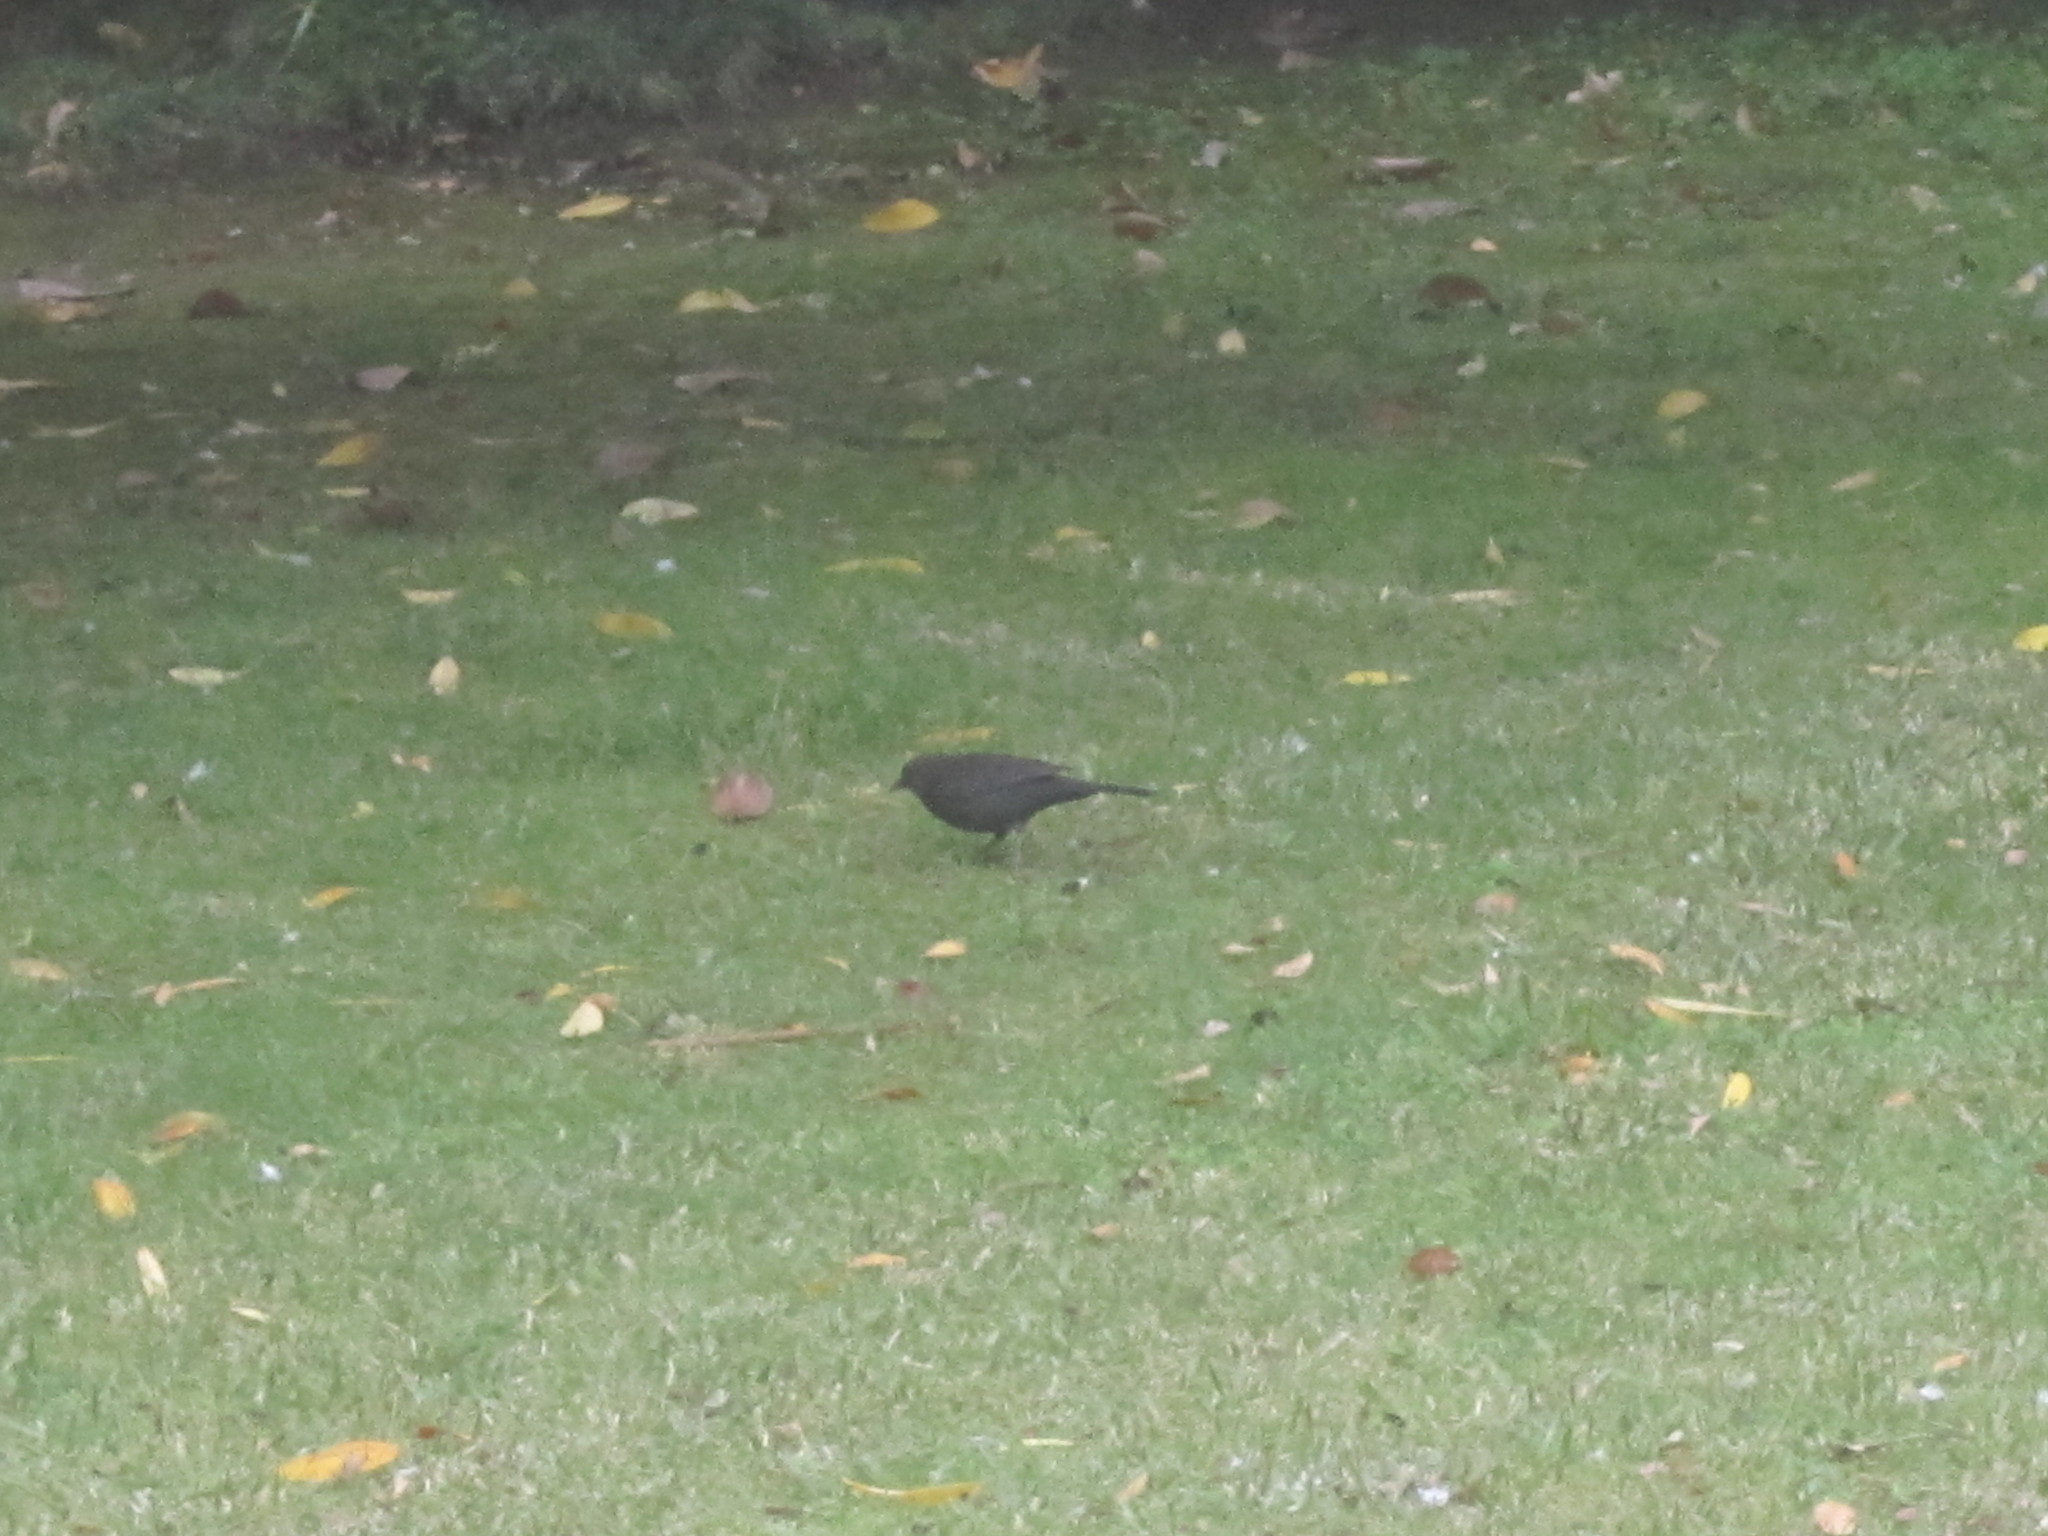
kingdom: Animalia
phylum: Chordata
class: Aves
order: Passeriformes
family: Turdidae
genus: Turdus
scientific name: Turdus merula
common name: Common blackbird
